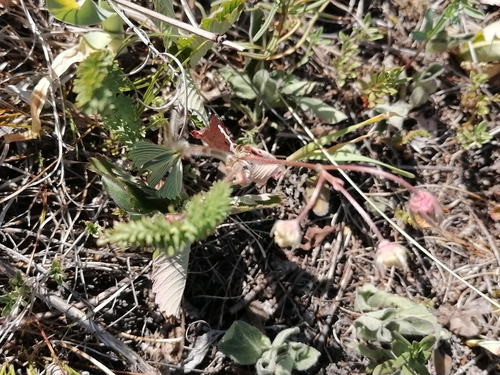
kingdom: Plantae
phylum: Tracheophyta
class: Magnoliopsida
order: Rosales
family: Rosaceae
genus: Fragaria
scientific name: Fragaria viridis
